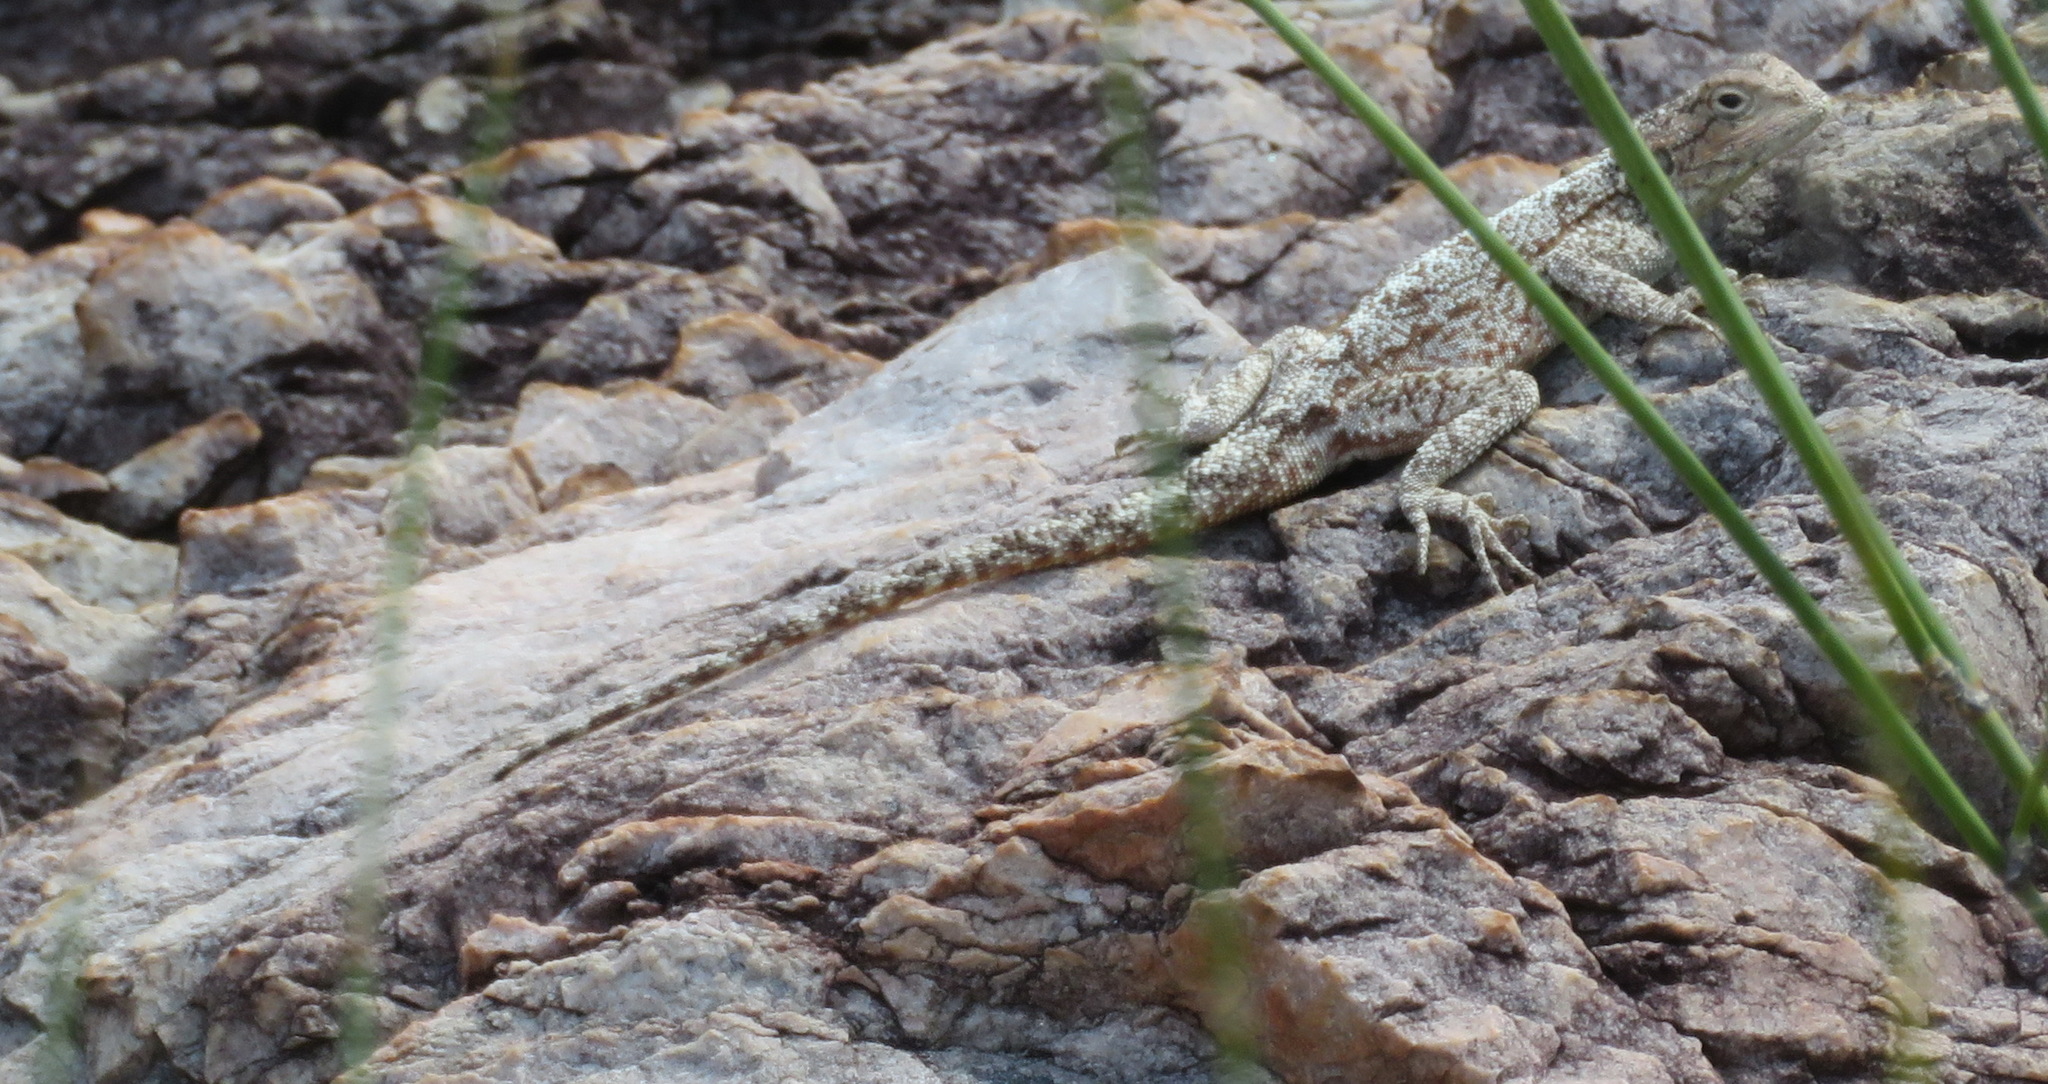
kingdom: Animalia
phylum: Chordata
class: Squamata
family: Agamidae
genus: Agama
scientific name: Agama atra
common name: Southern african rock agama
